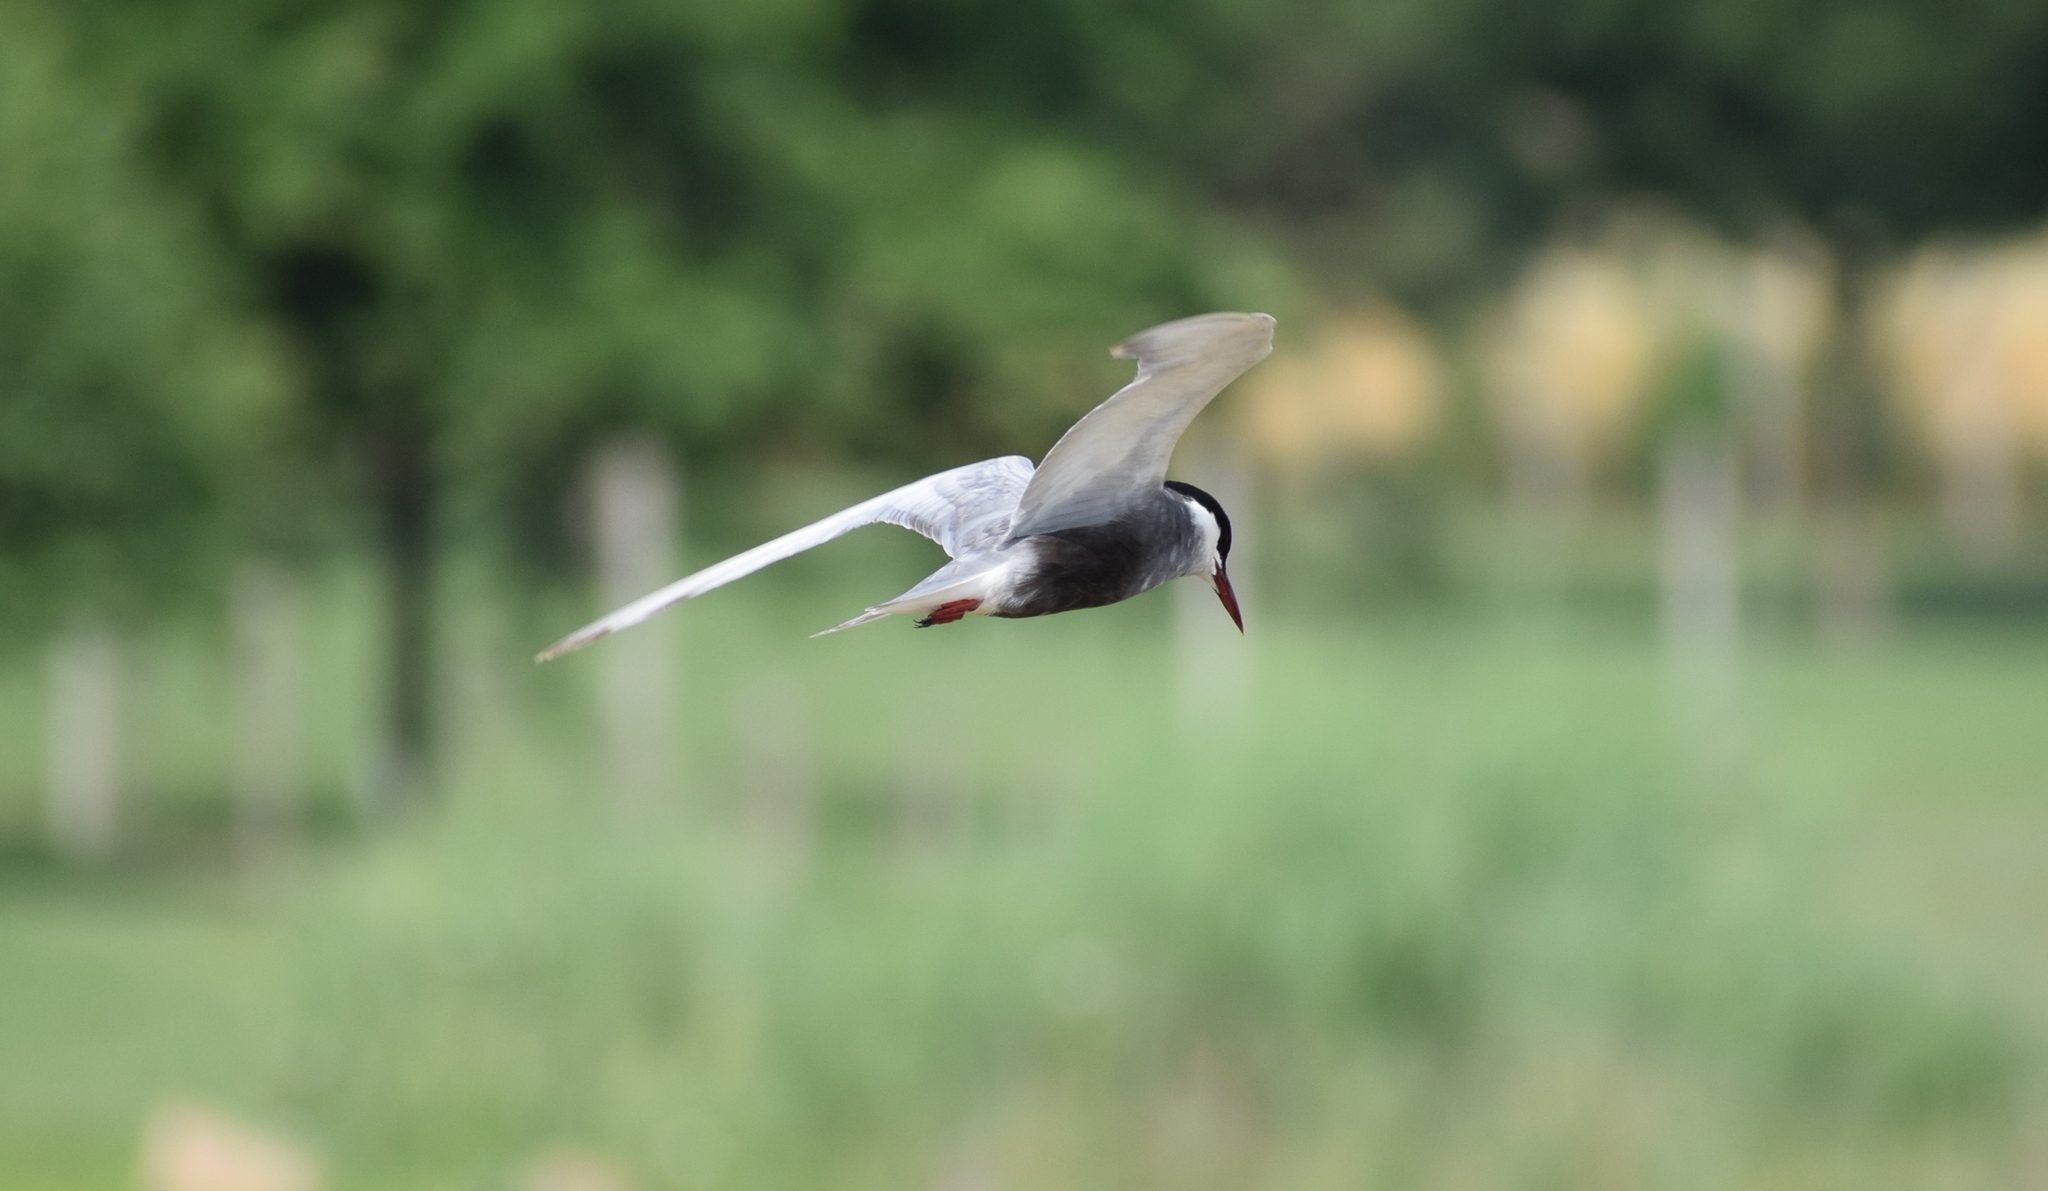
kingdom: Animalia
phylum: Chordata
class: Aves
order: Charadriiformes
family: Laridae
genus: Chlidonias
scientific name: Chlidonias hybrida
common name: Whiskered tern
